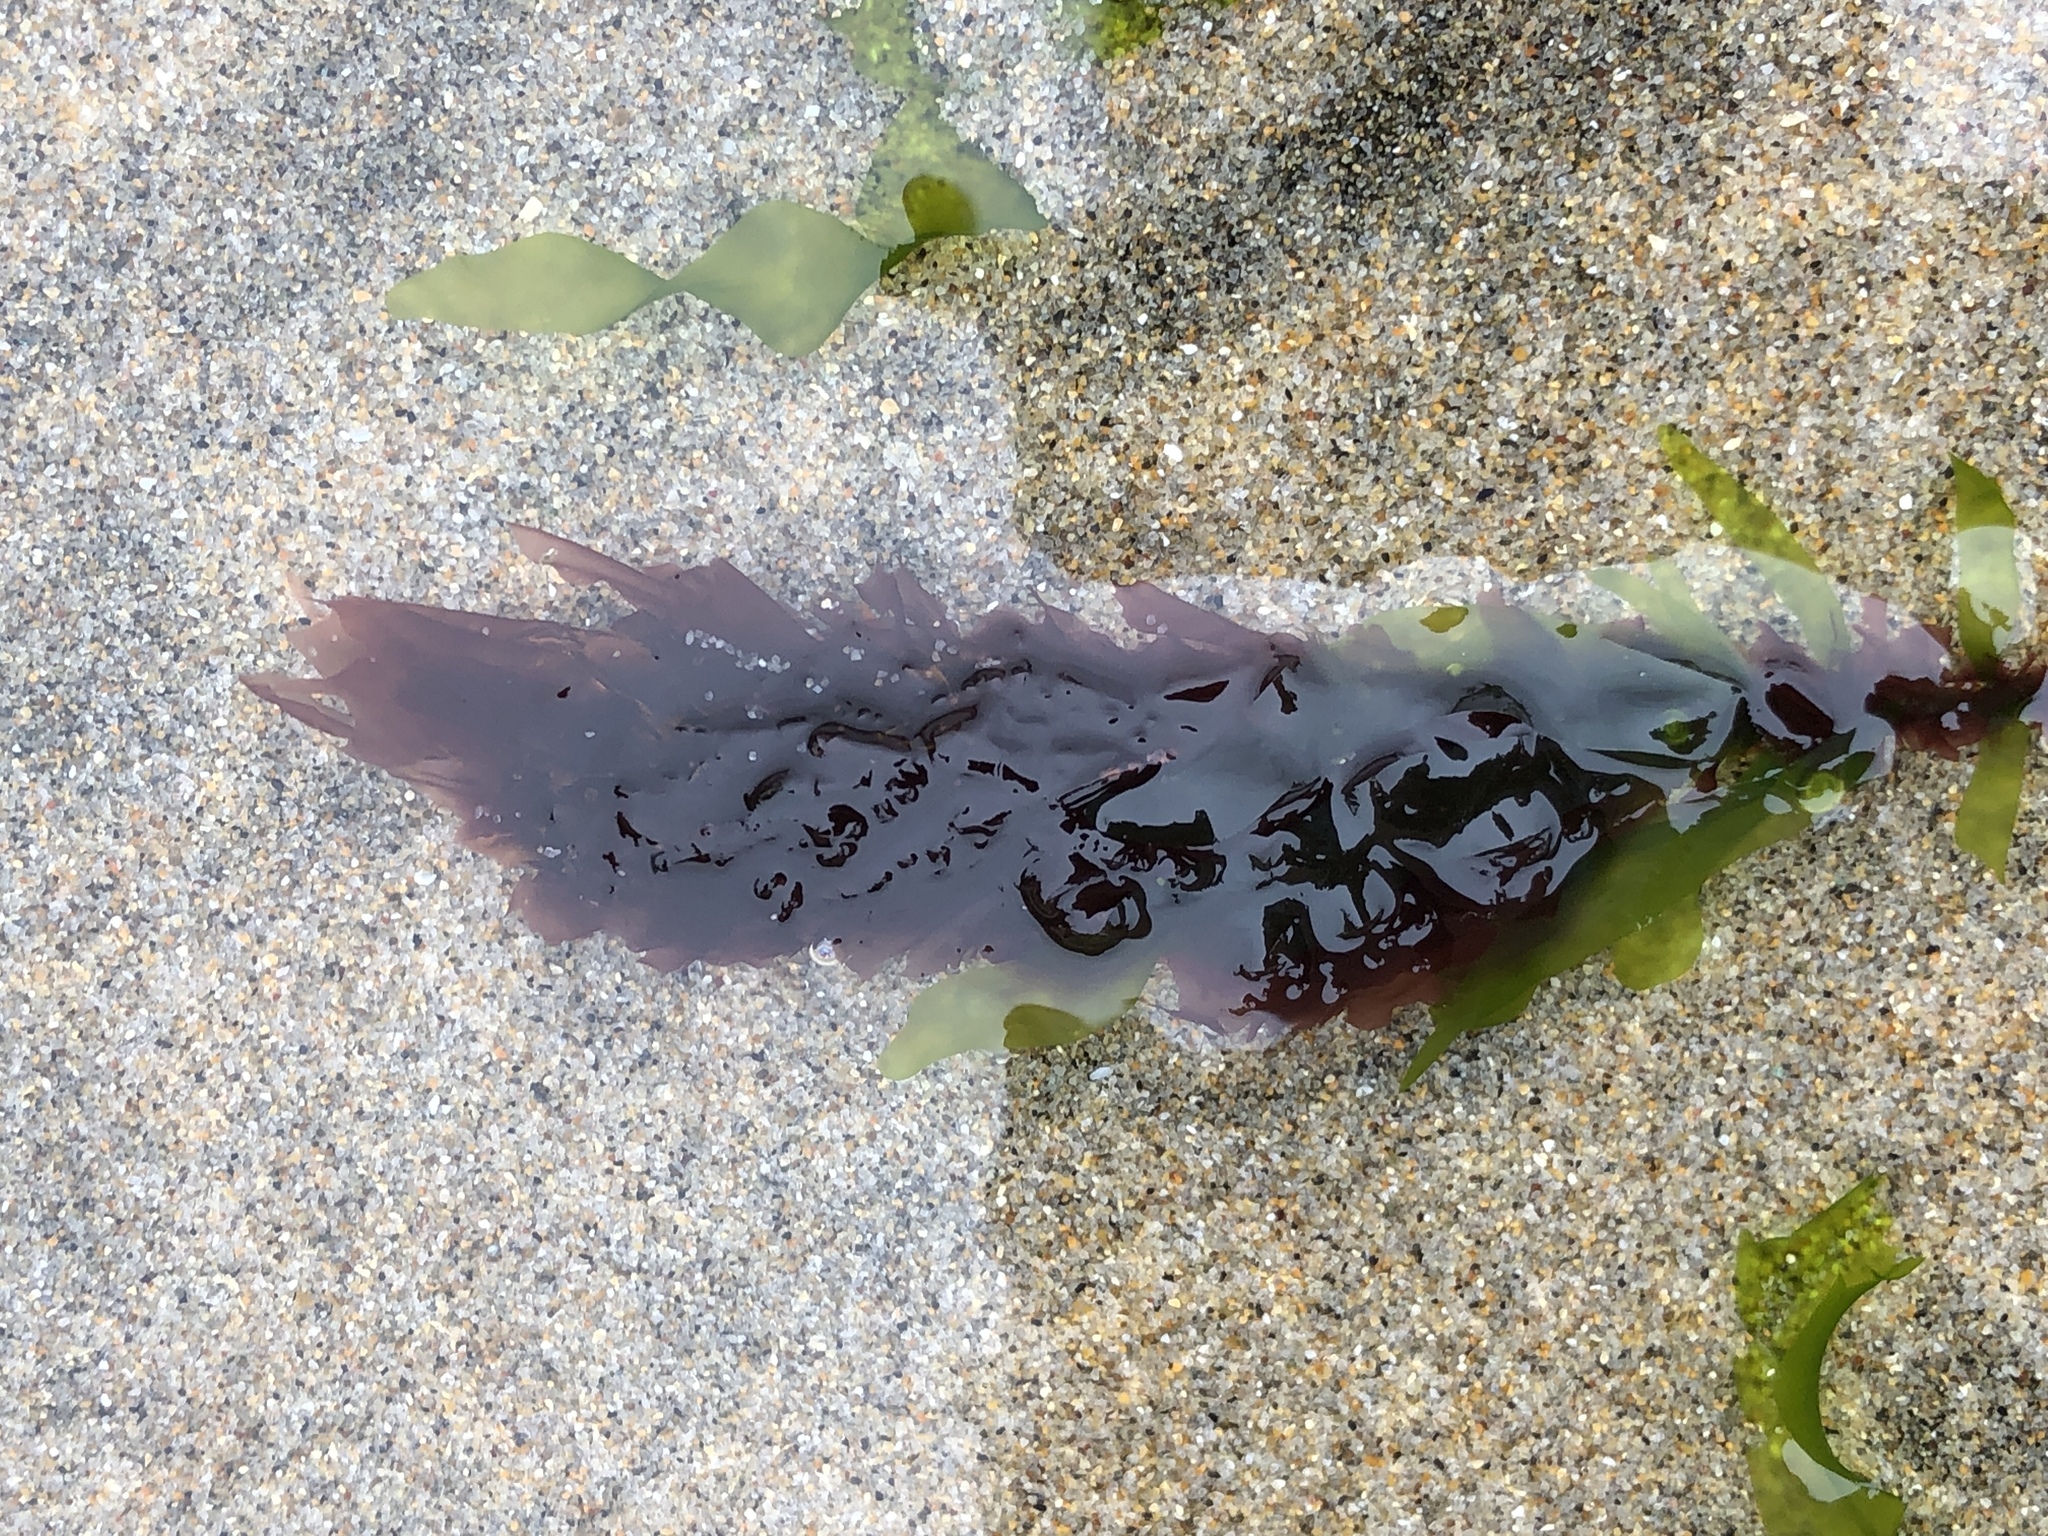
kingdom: Plantae
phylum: Rhodophyta
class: Compsopogonophyceae
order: Erythropeltidales
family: Erythrotrichiaceae
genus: Smithora
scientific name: Smithora naiadum
